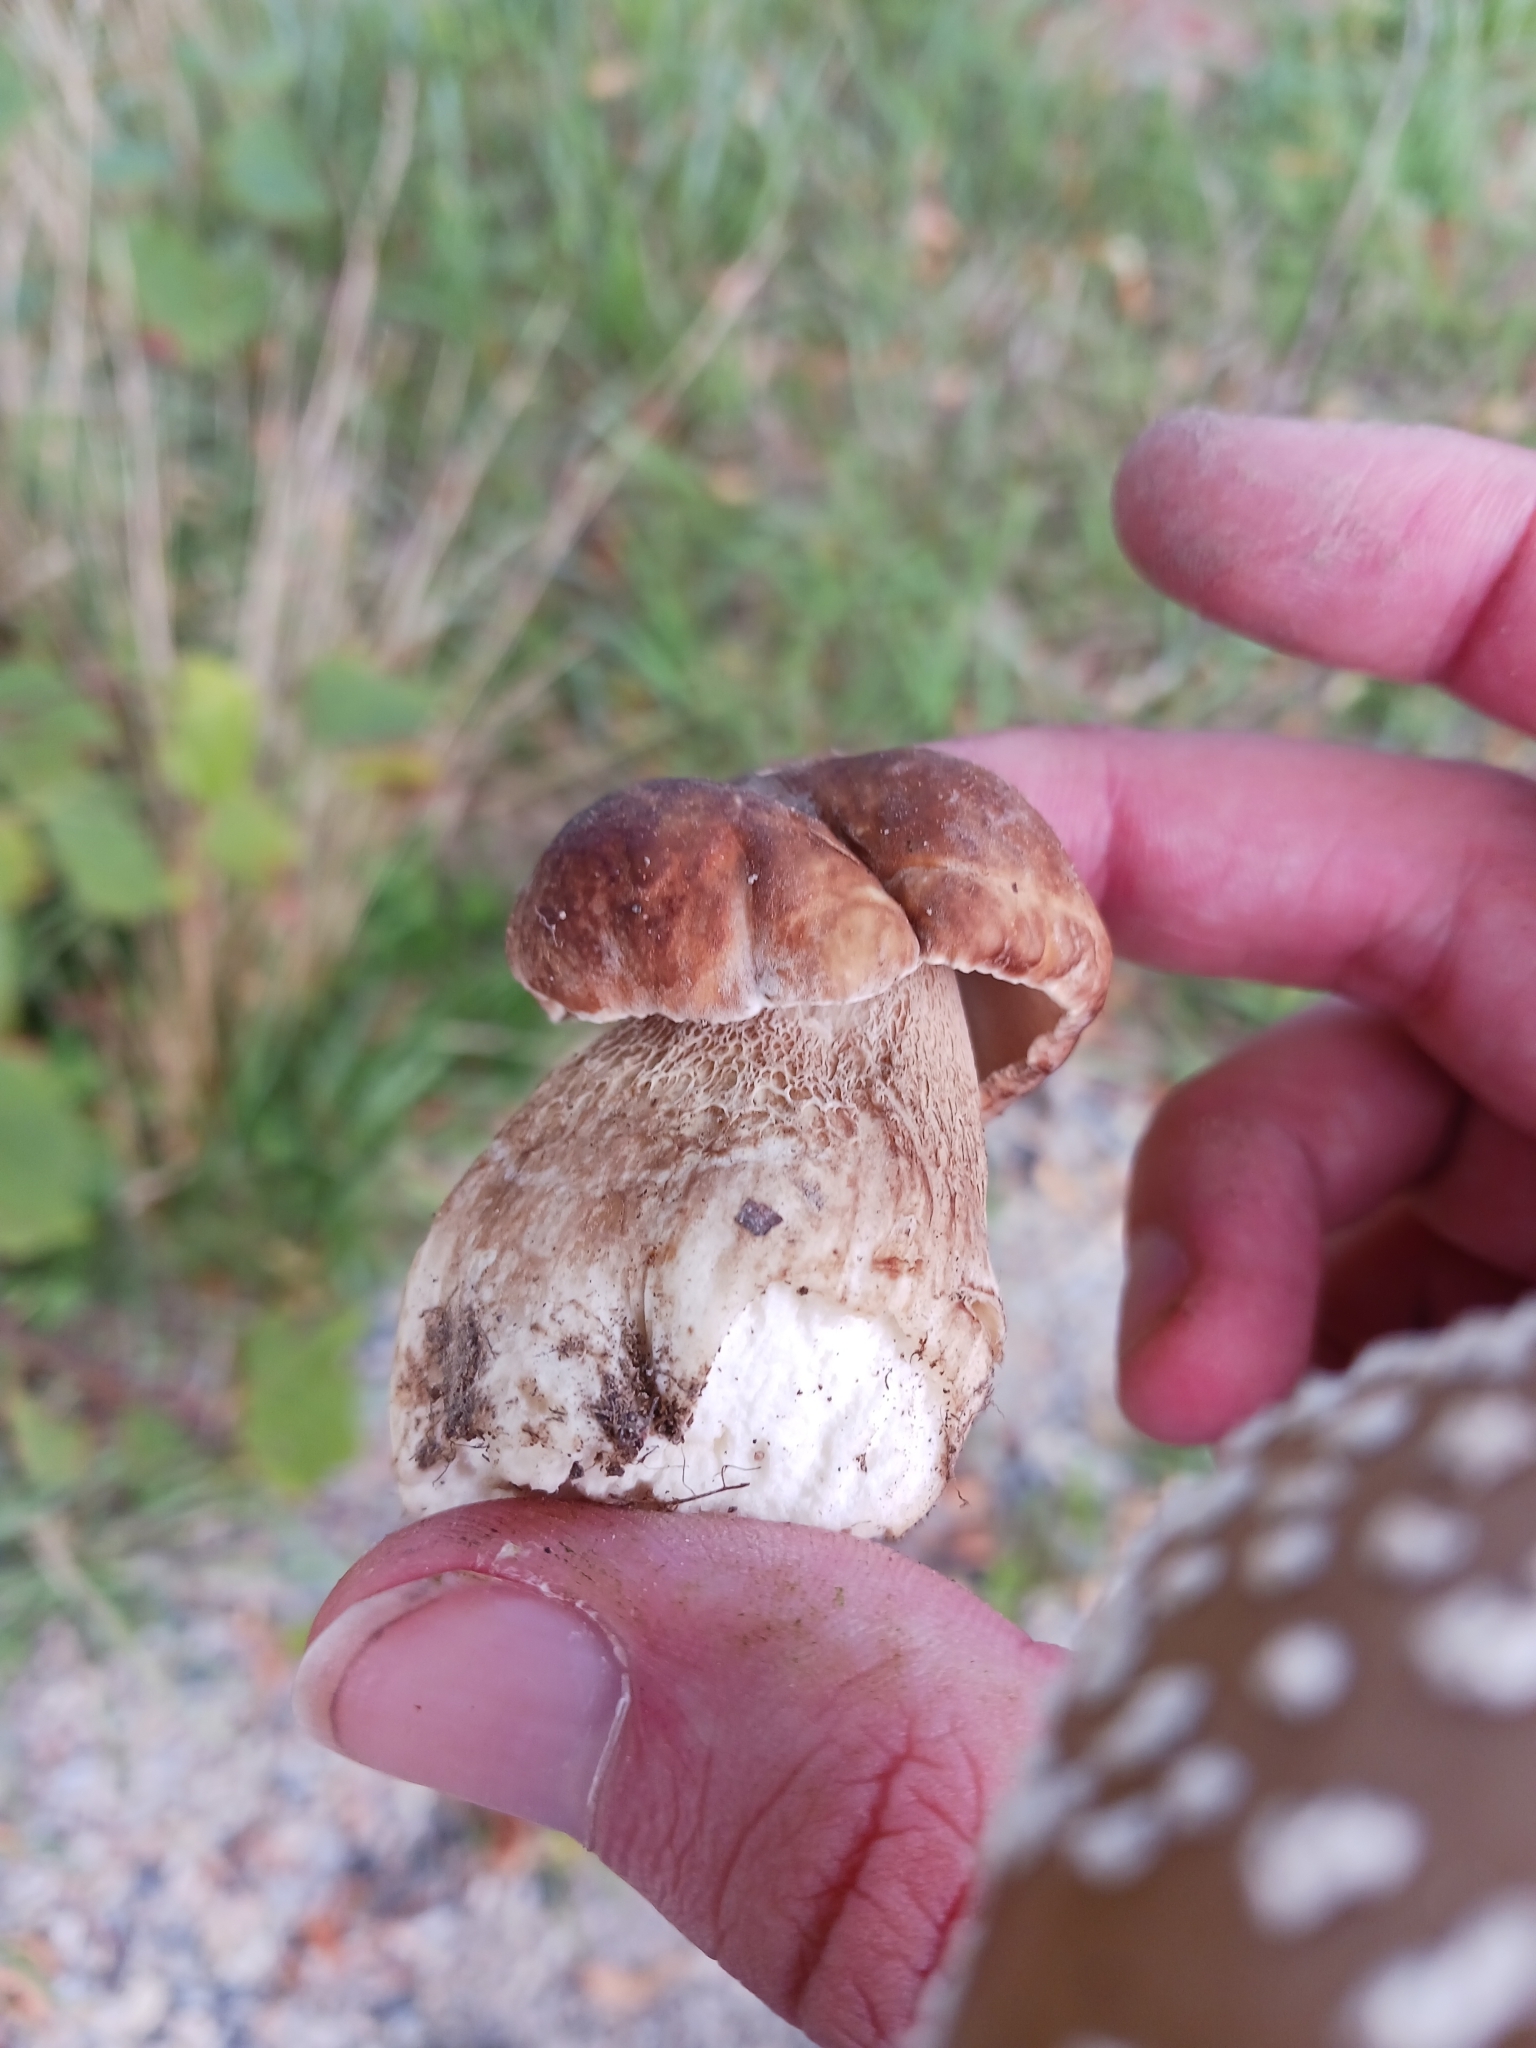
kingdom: Fungi
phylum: Basidiomycota
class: Agaricomycetes
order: Boletales
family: Boletaceae
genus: Boletus
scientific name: Boletus reticulatus
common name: Summer bolete
